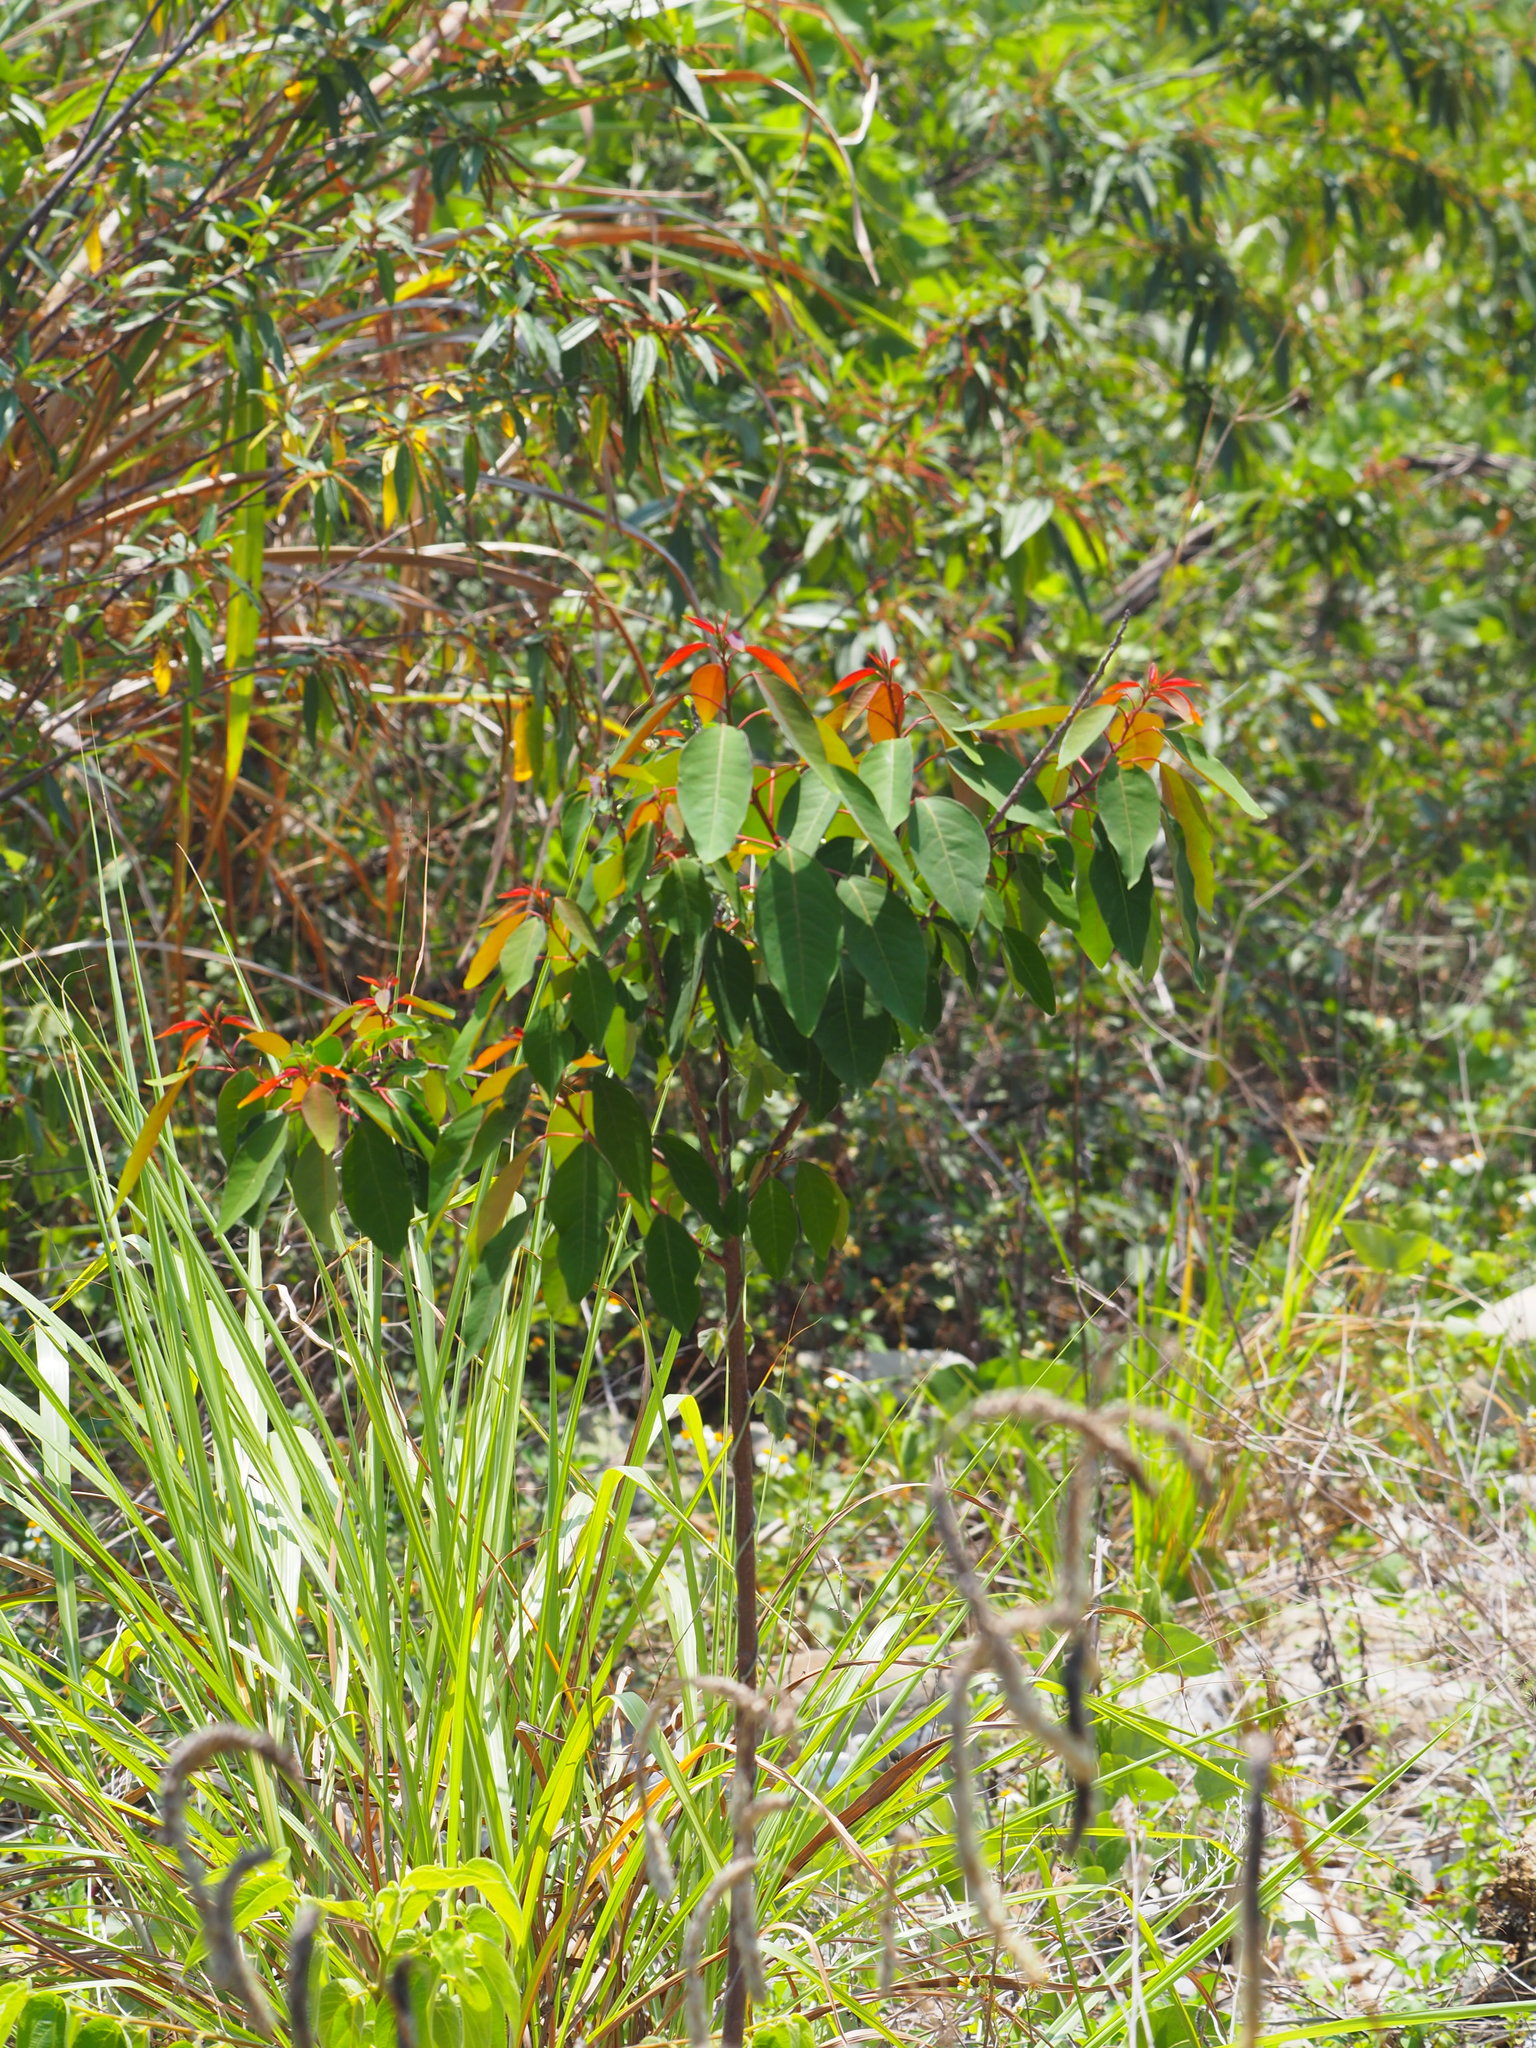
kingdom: Plantae
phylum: Tracheophyta
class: Magnoliopsida
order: Malpighiales
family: Euphorbiaceae
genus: Triadica
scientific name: Triadica cochinchinensis
